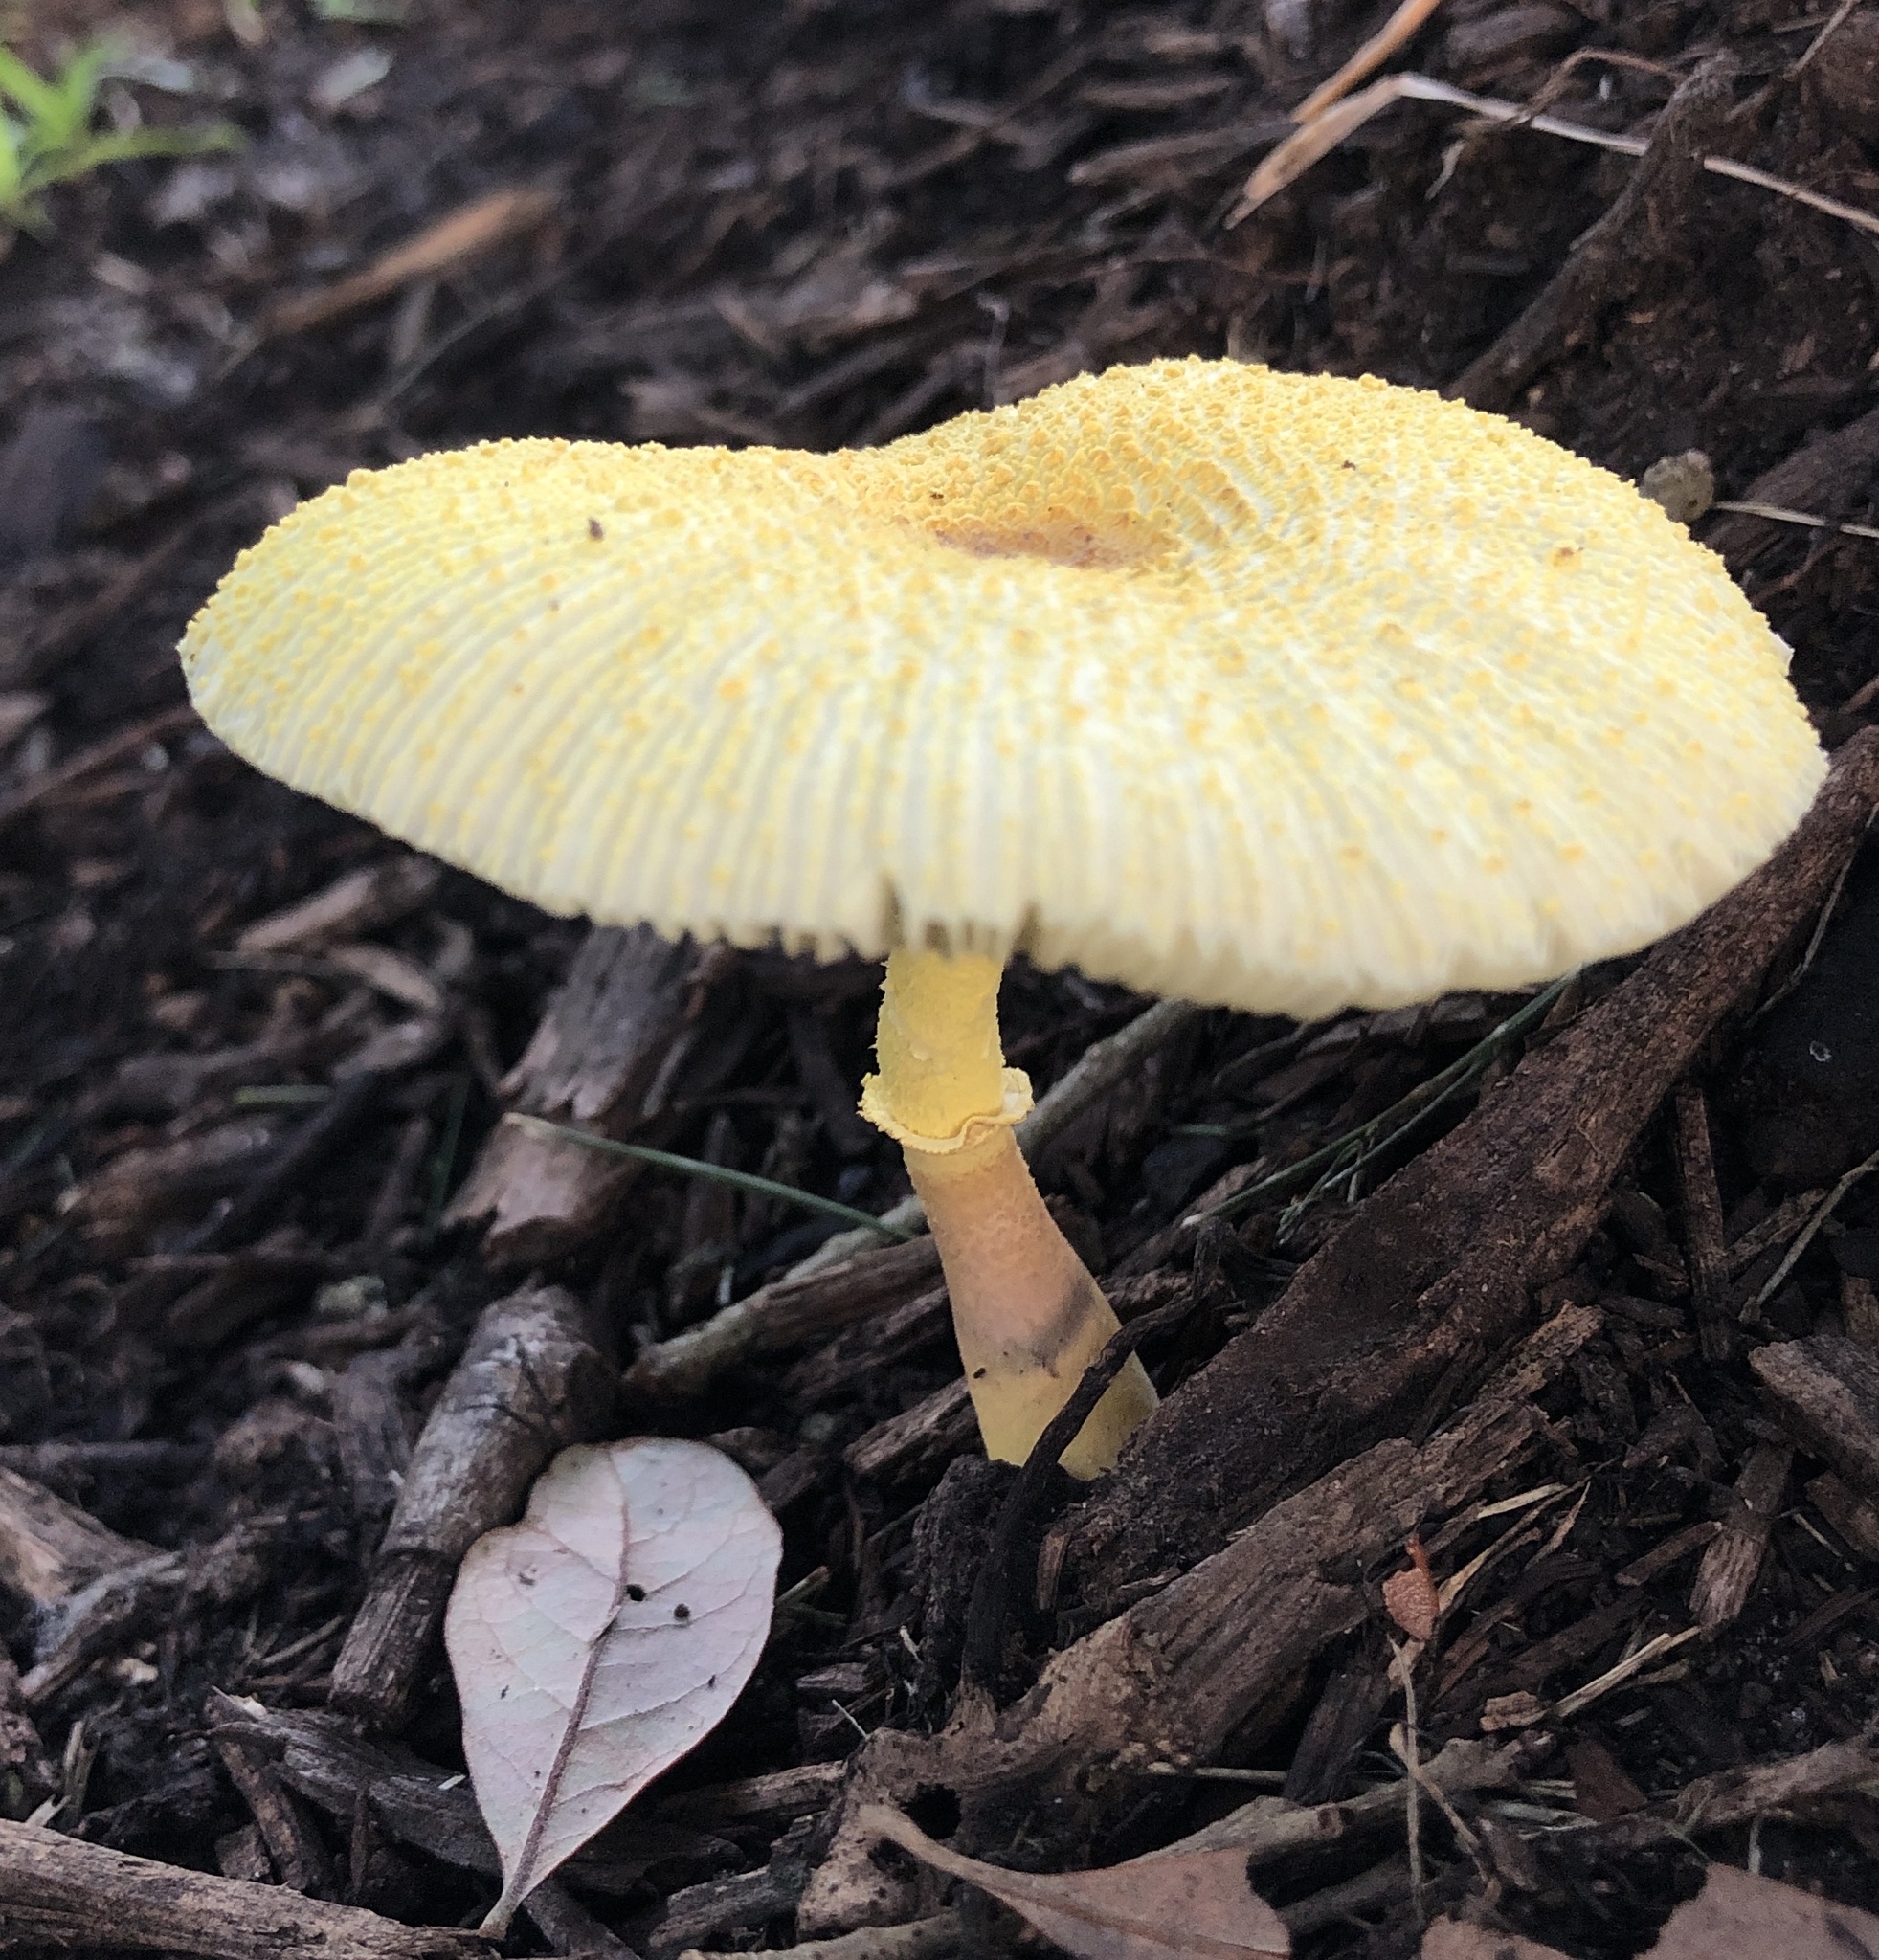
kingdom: Fungi
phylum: Basidiomycota
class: Agaricomycetes
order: Agaricales
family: Agaricaceae
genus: Leucocoprinus
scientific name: Leucocoprinus birnbaumii
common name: Plantpot dapperling
